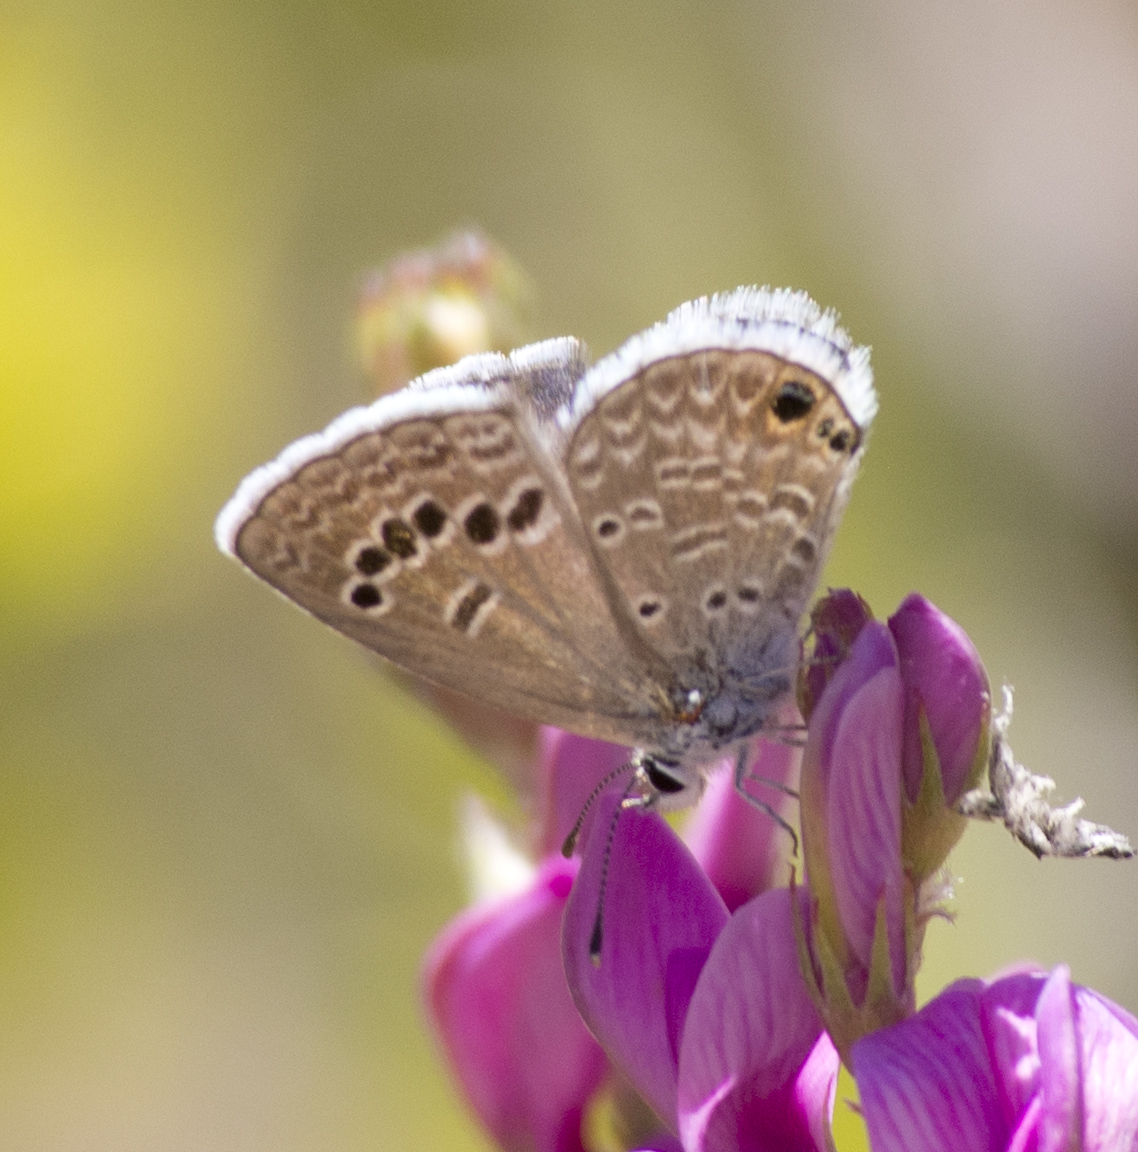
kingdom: Animalia
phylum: Arthropoda
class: Insecta
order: Lepidoptera
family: Lycaenidae
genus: Echinargus
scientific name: Echinargus isola
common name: Reakirt's blue
